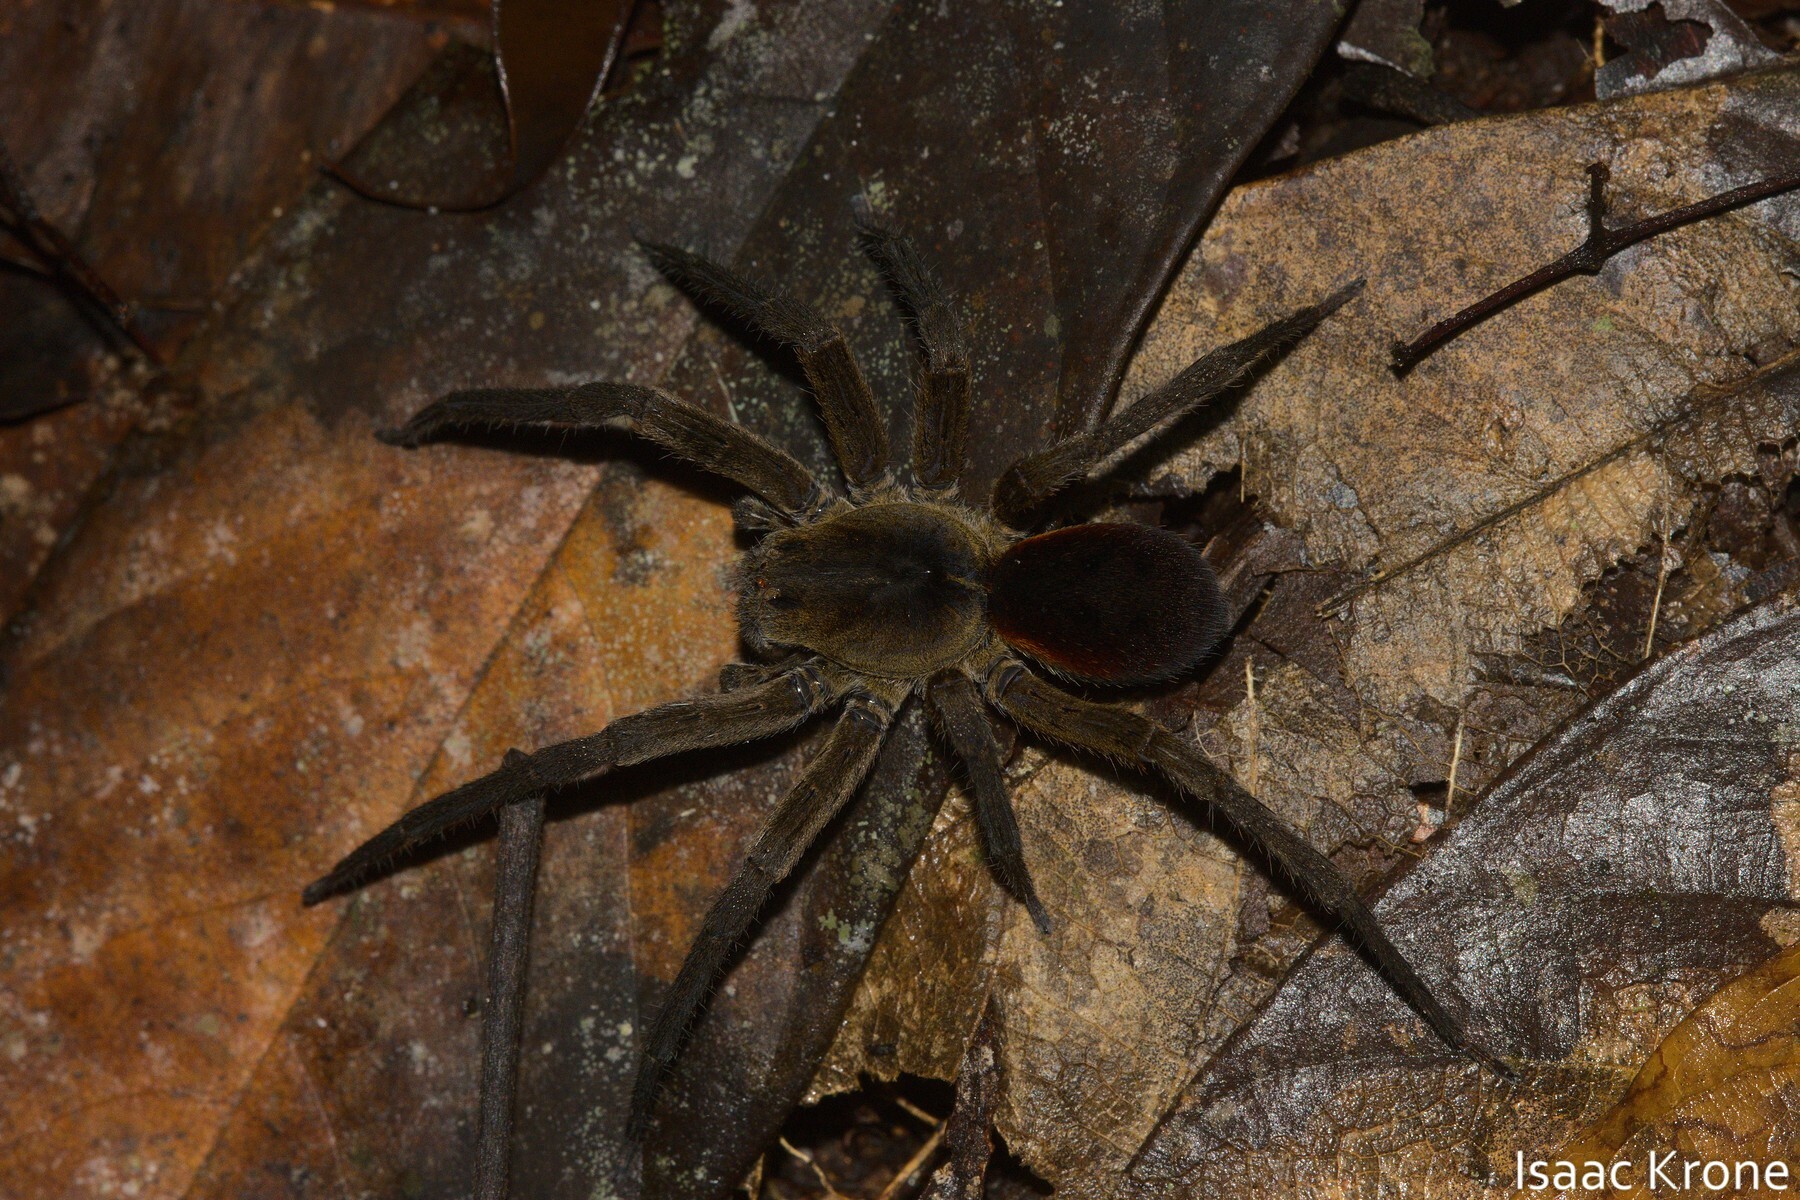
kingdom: Animalia
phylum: Arthropoda
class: Arachnida
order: Araneae
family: Ctenidae
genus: Ctenus
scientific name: Ctenus villasboasi
